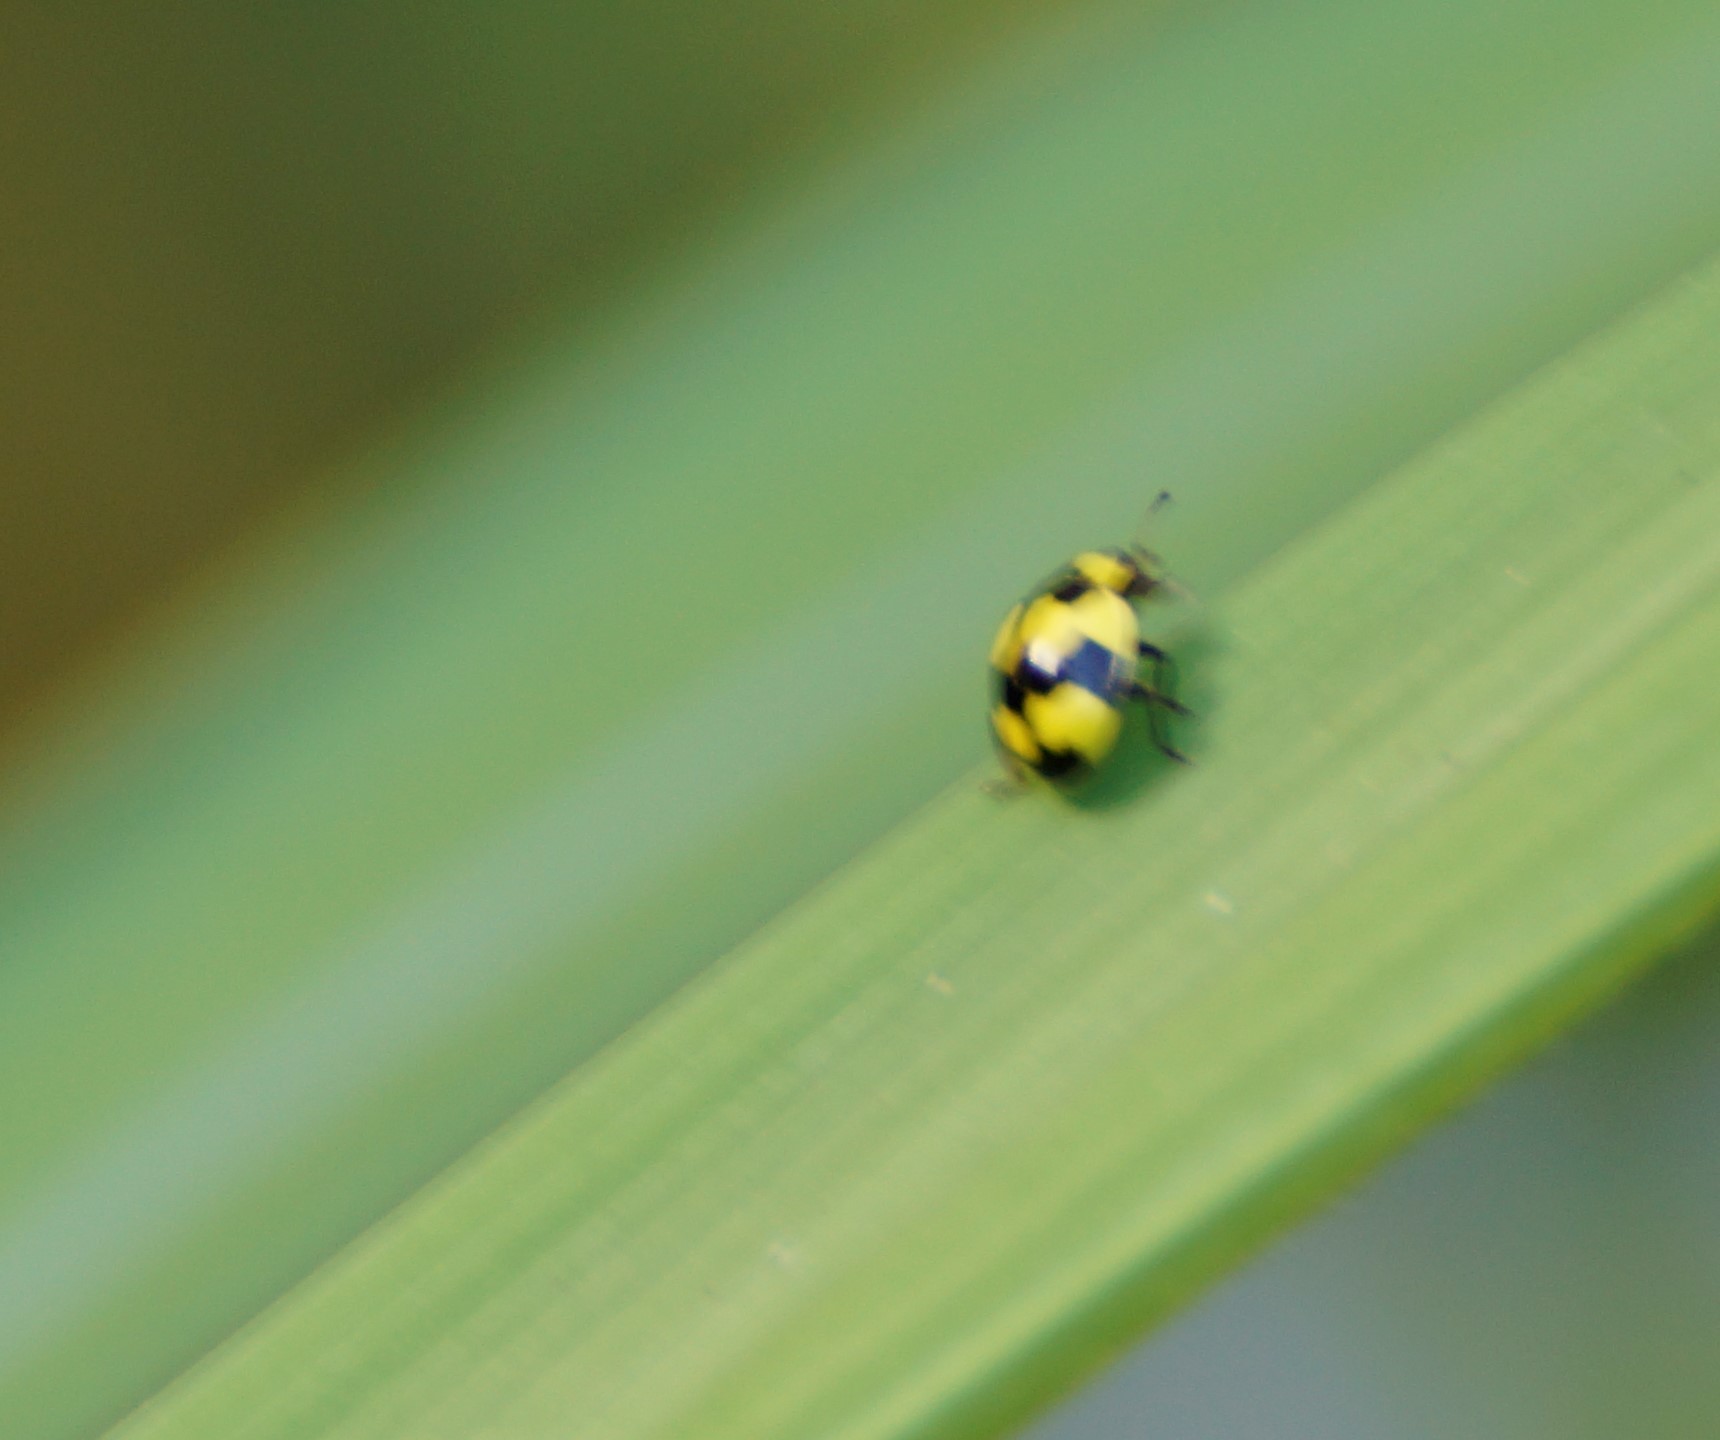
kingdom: Animalia
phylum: Arthropoda
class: Insecta
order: Coleoptera
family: Coccinellidae
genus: Illeis
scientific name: Illeis galbula
